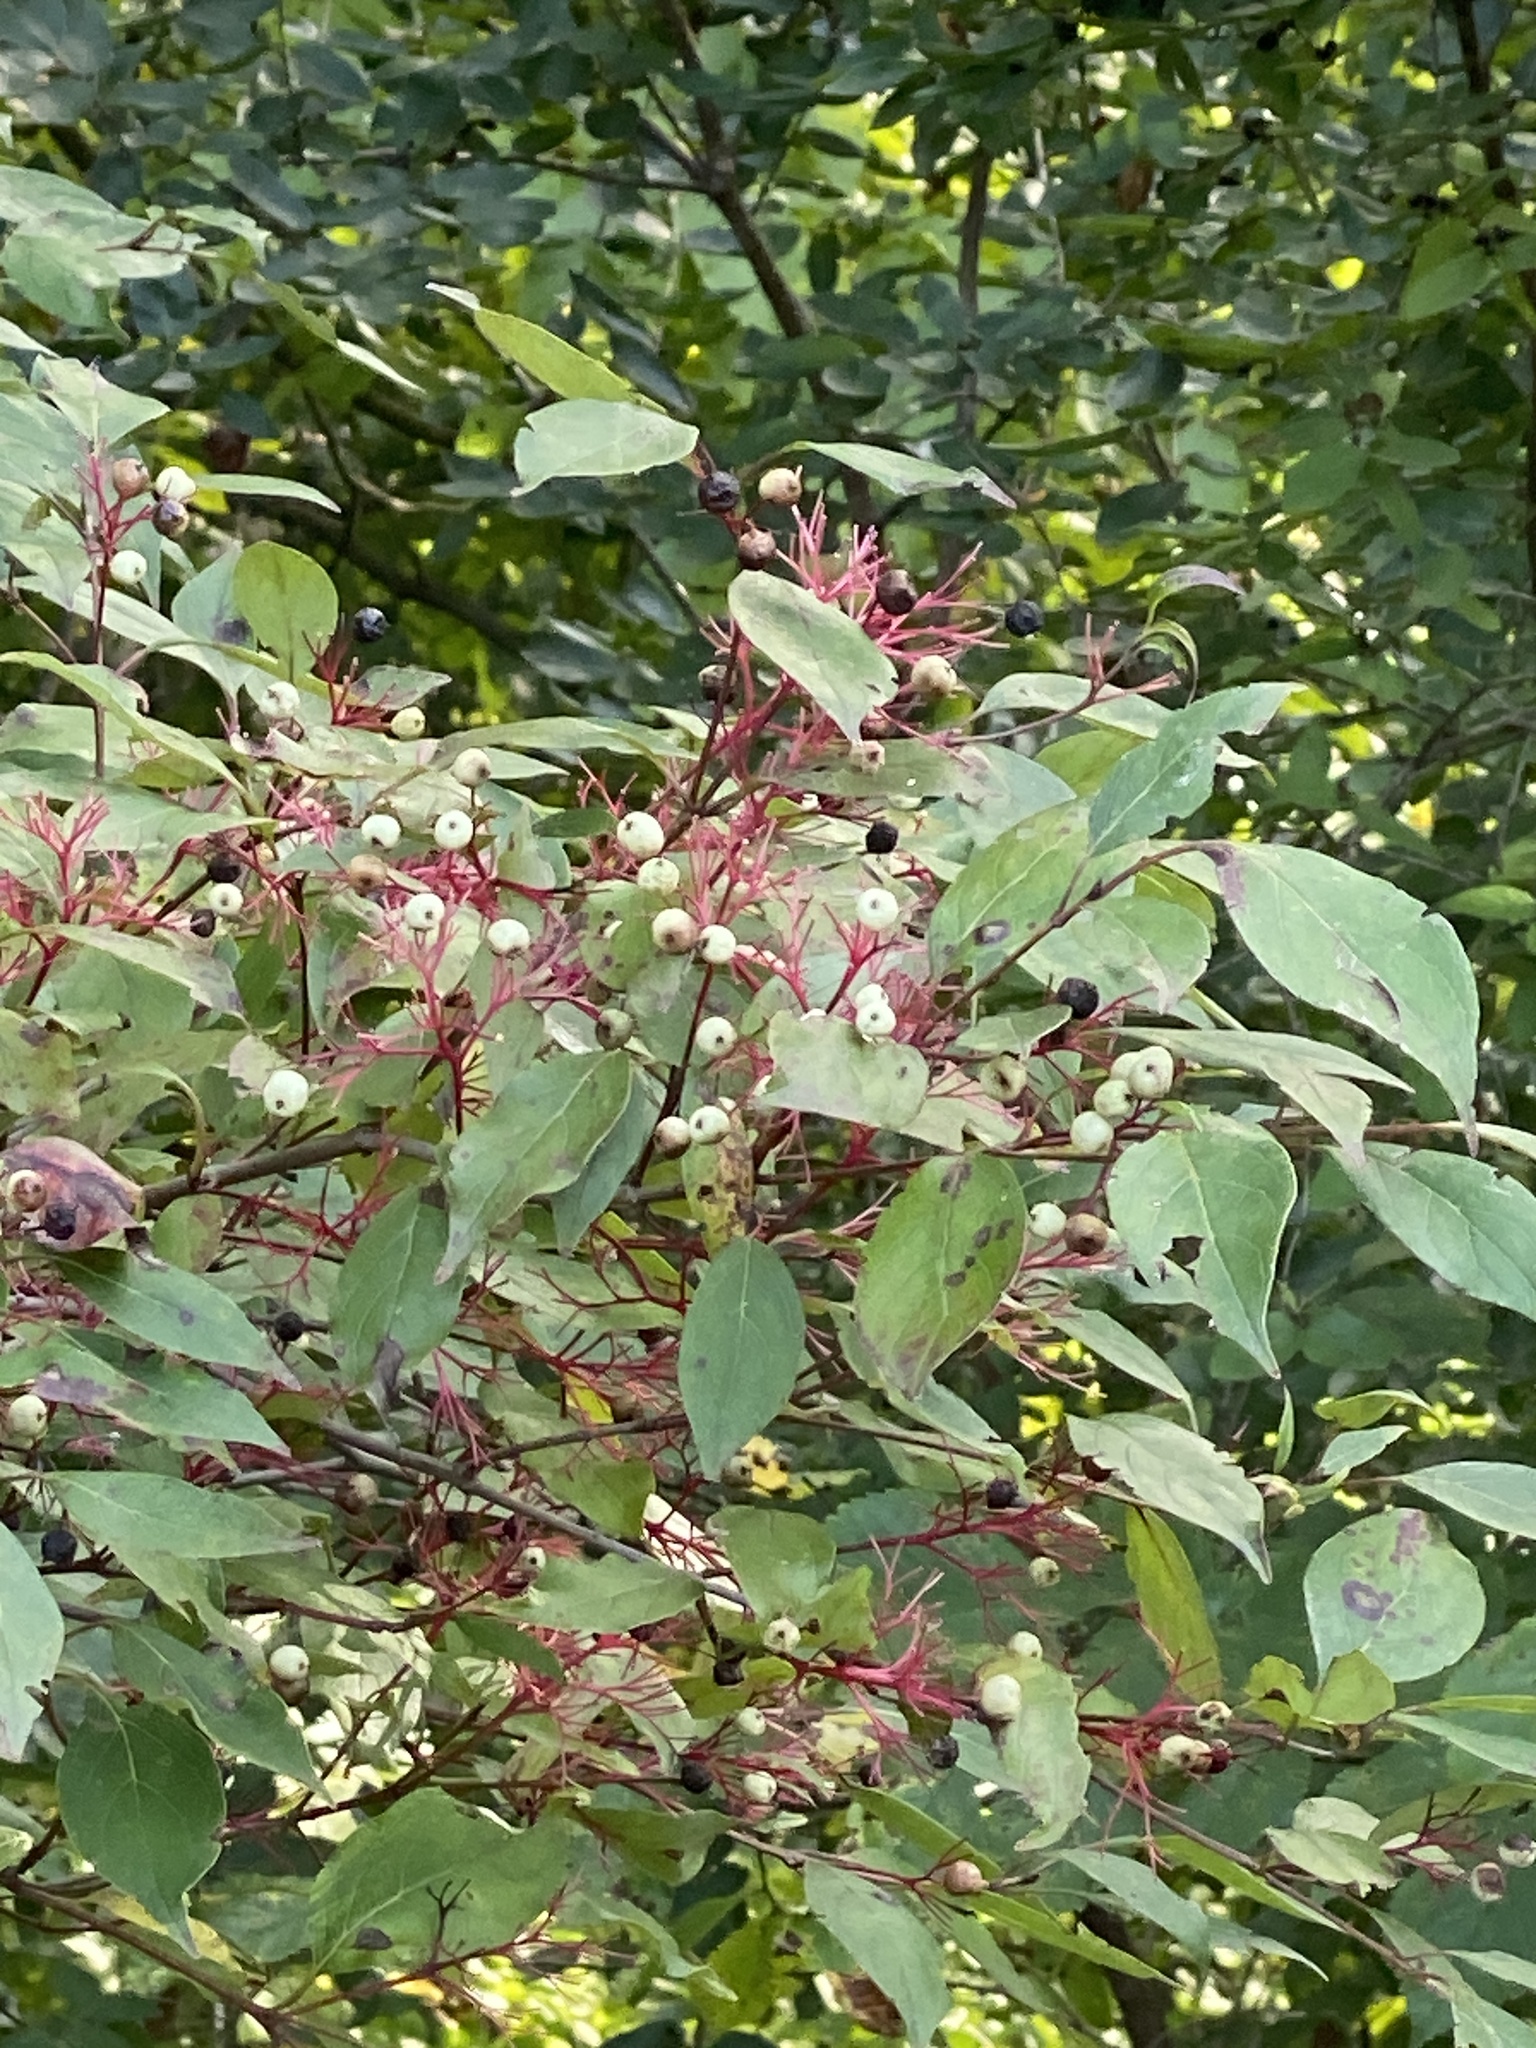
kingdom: Plantae
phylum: Tracheophyta
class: Magnoliopsida
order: Cornales
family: Cornaceae
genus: Cornus
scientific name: Cornus racemosa
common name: Panicled dogwood
